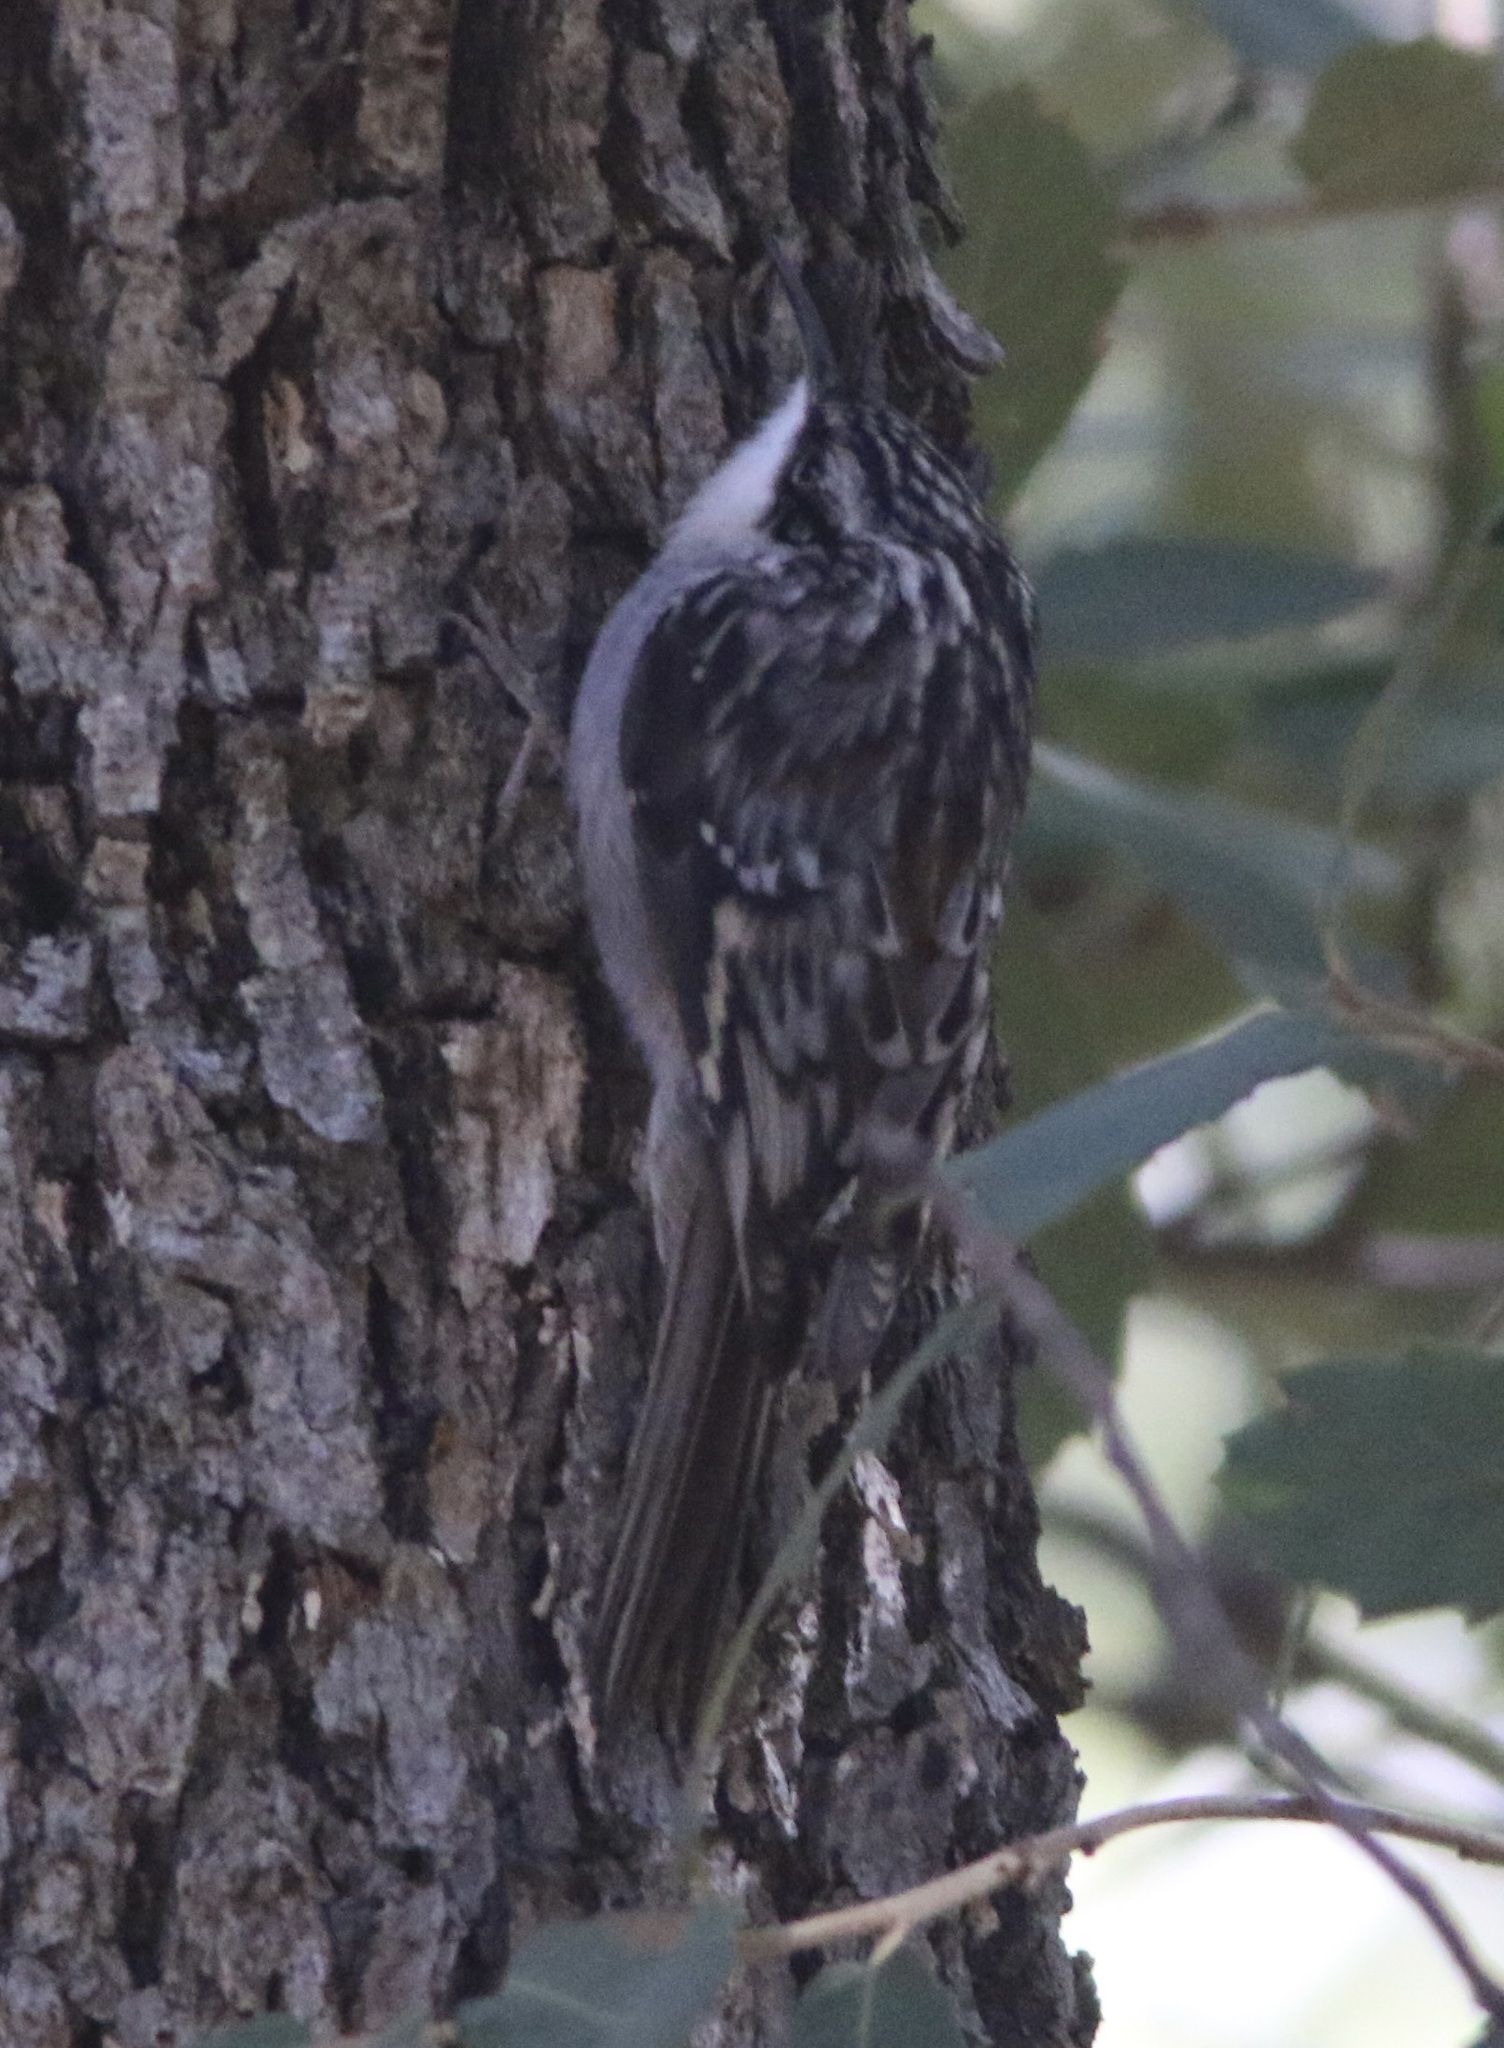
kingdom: Animalia
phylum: Chordata
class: Aves
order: Passeriformes
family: Certhiidae
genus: Certhia
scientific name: Certhia americana
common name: Brown creeper
